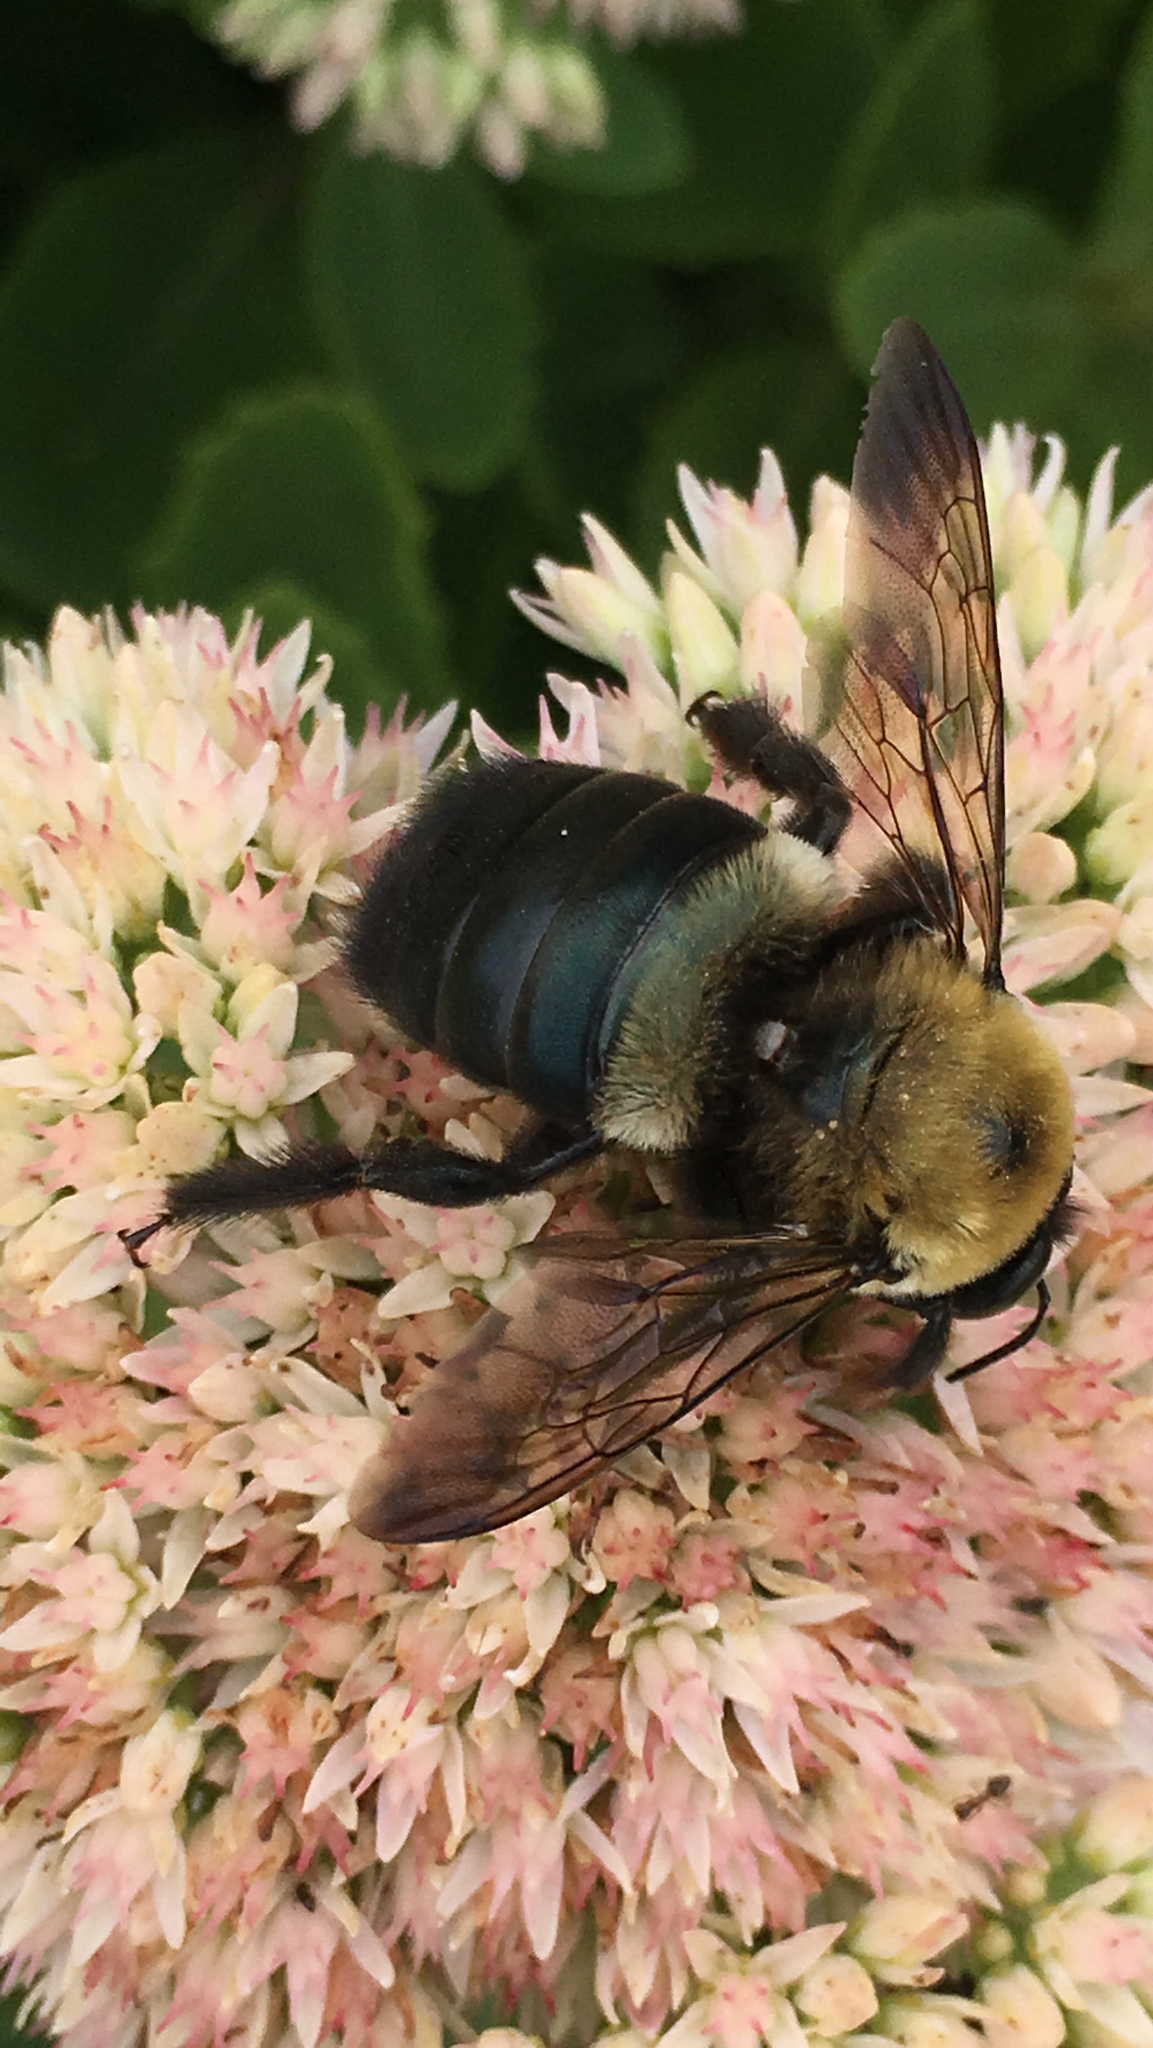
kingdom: Animalia
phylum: Arthropoda
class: Insecta
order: Hymenoptera
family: Apidae
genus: Xylocopa
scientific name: Xylocopa virginica
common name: Carpenter bee
